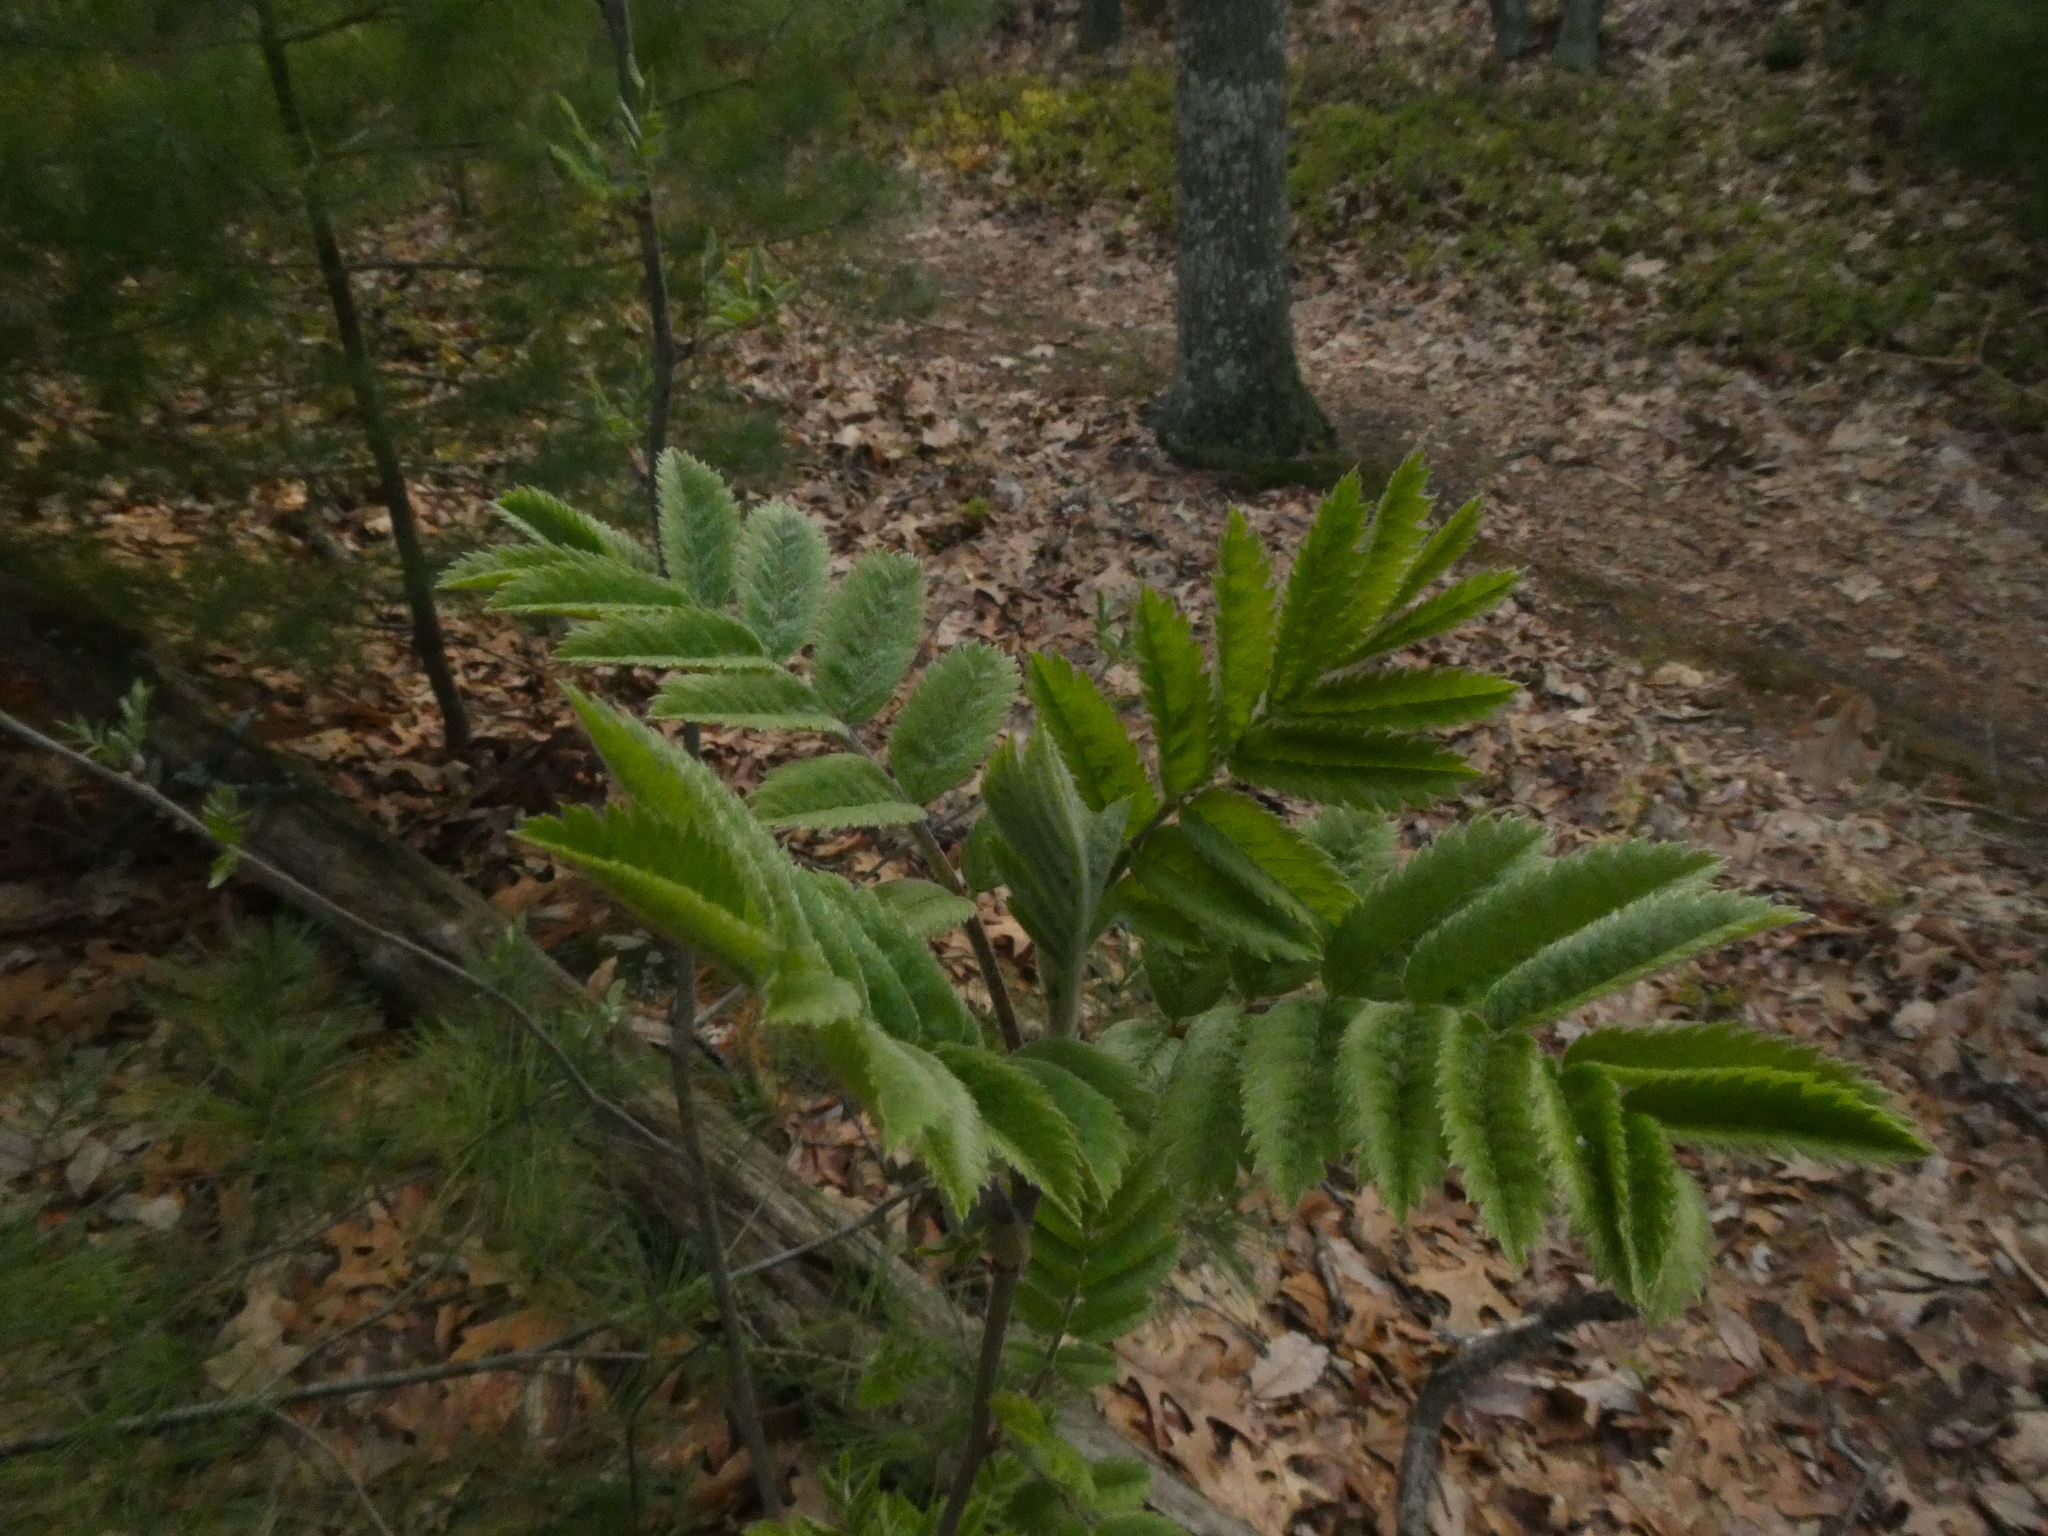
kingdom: Plantae
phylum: Tracheophyta
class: Magnoliopsida
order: Rosales
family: Rosaceae
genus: Sorbus
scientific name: Sorbus aucuparia
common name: Rowan
